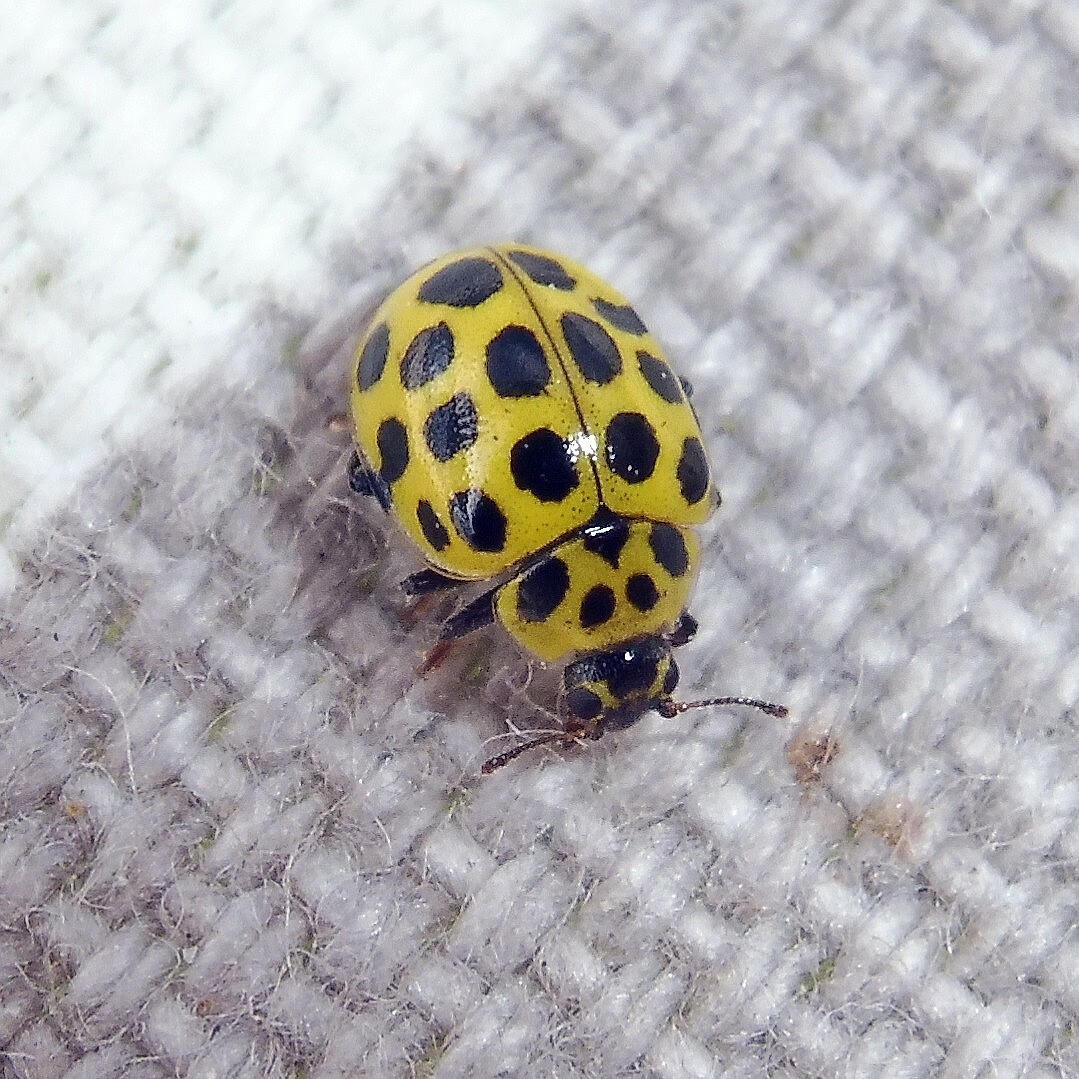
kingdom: Animalia
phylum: Arthropoda
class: Insecta
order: Coleoptera
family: Coccinellidae
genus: Psyllobora
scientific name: Psyllobora vigintiduopunctata
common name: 22-spot ladybird
